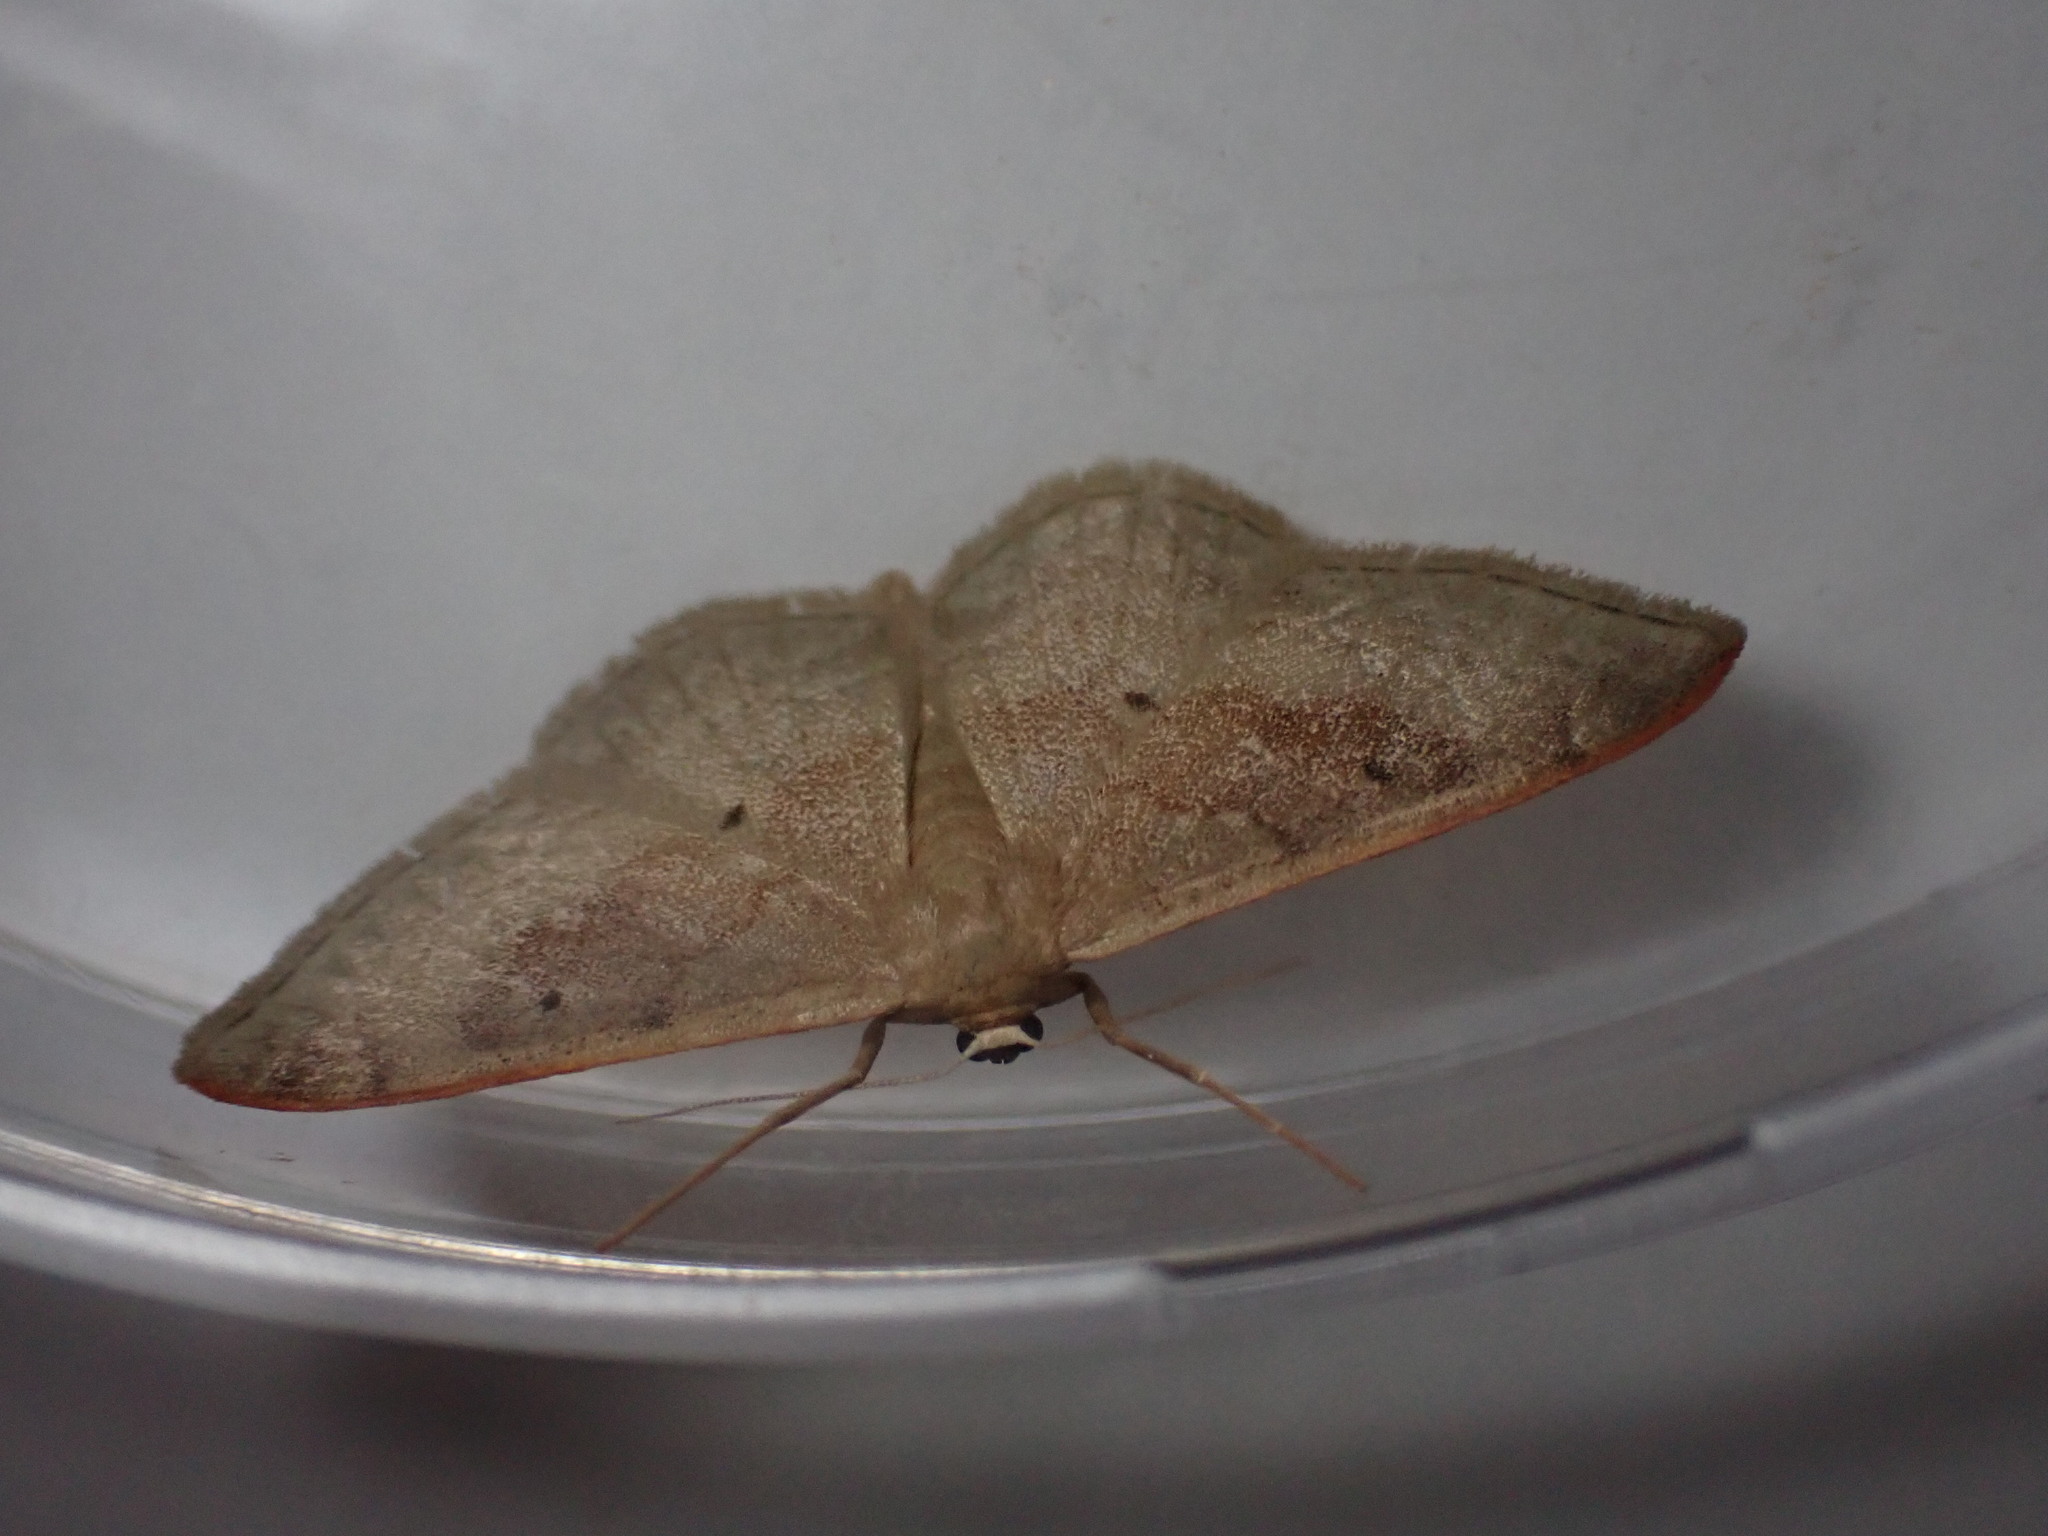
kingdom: Animalia
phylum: Arthropoda
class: Insecta
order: Lepidoptera
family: Geometridae
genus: Idaea
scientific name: Idaea degeneraria
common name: Portland ribbon wave
